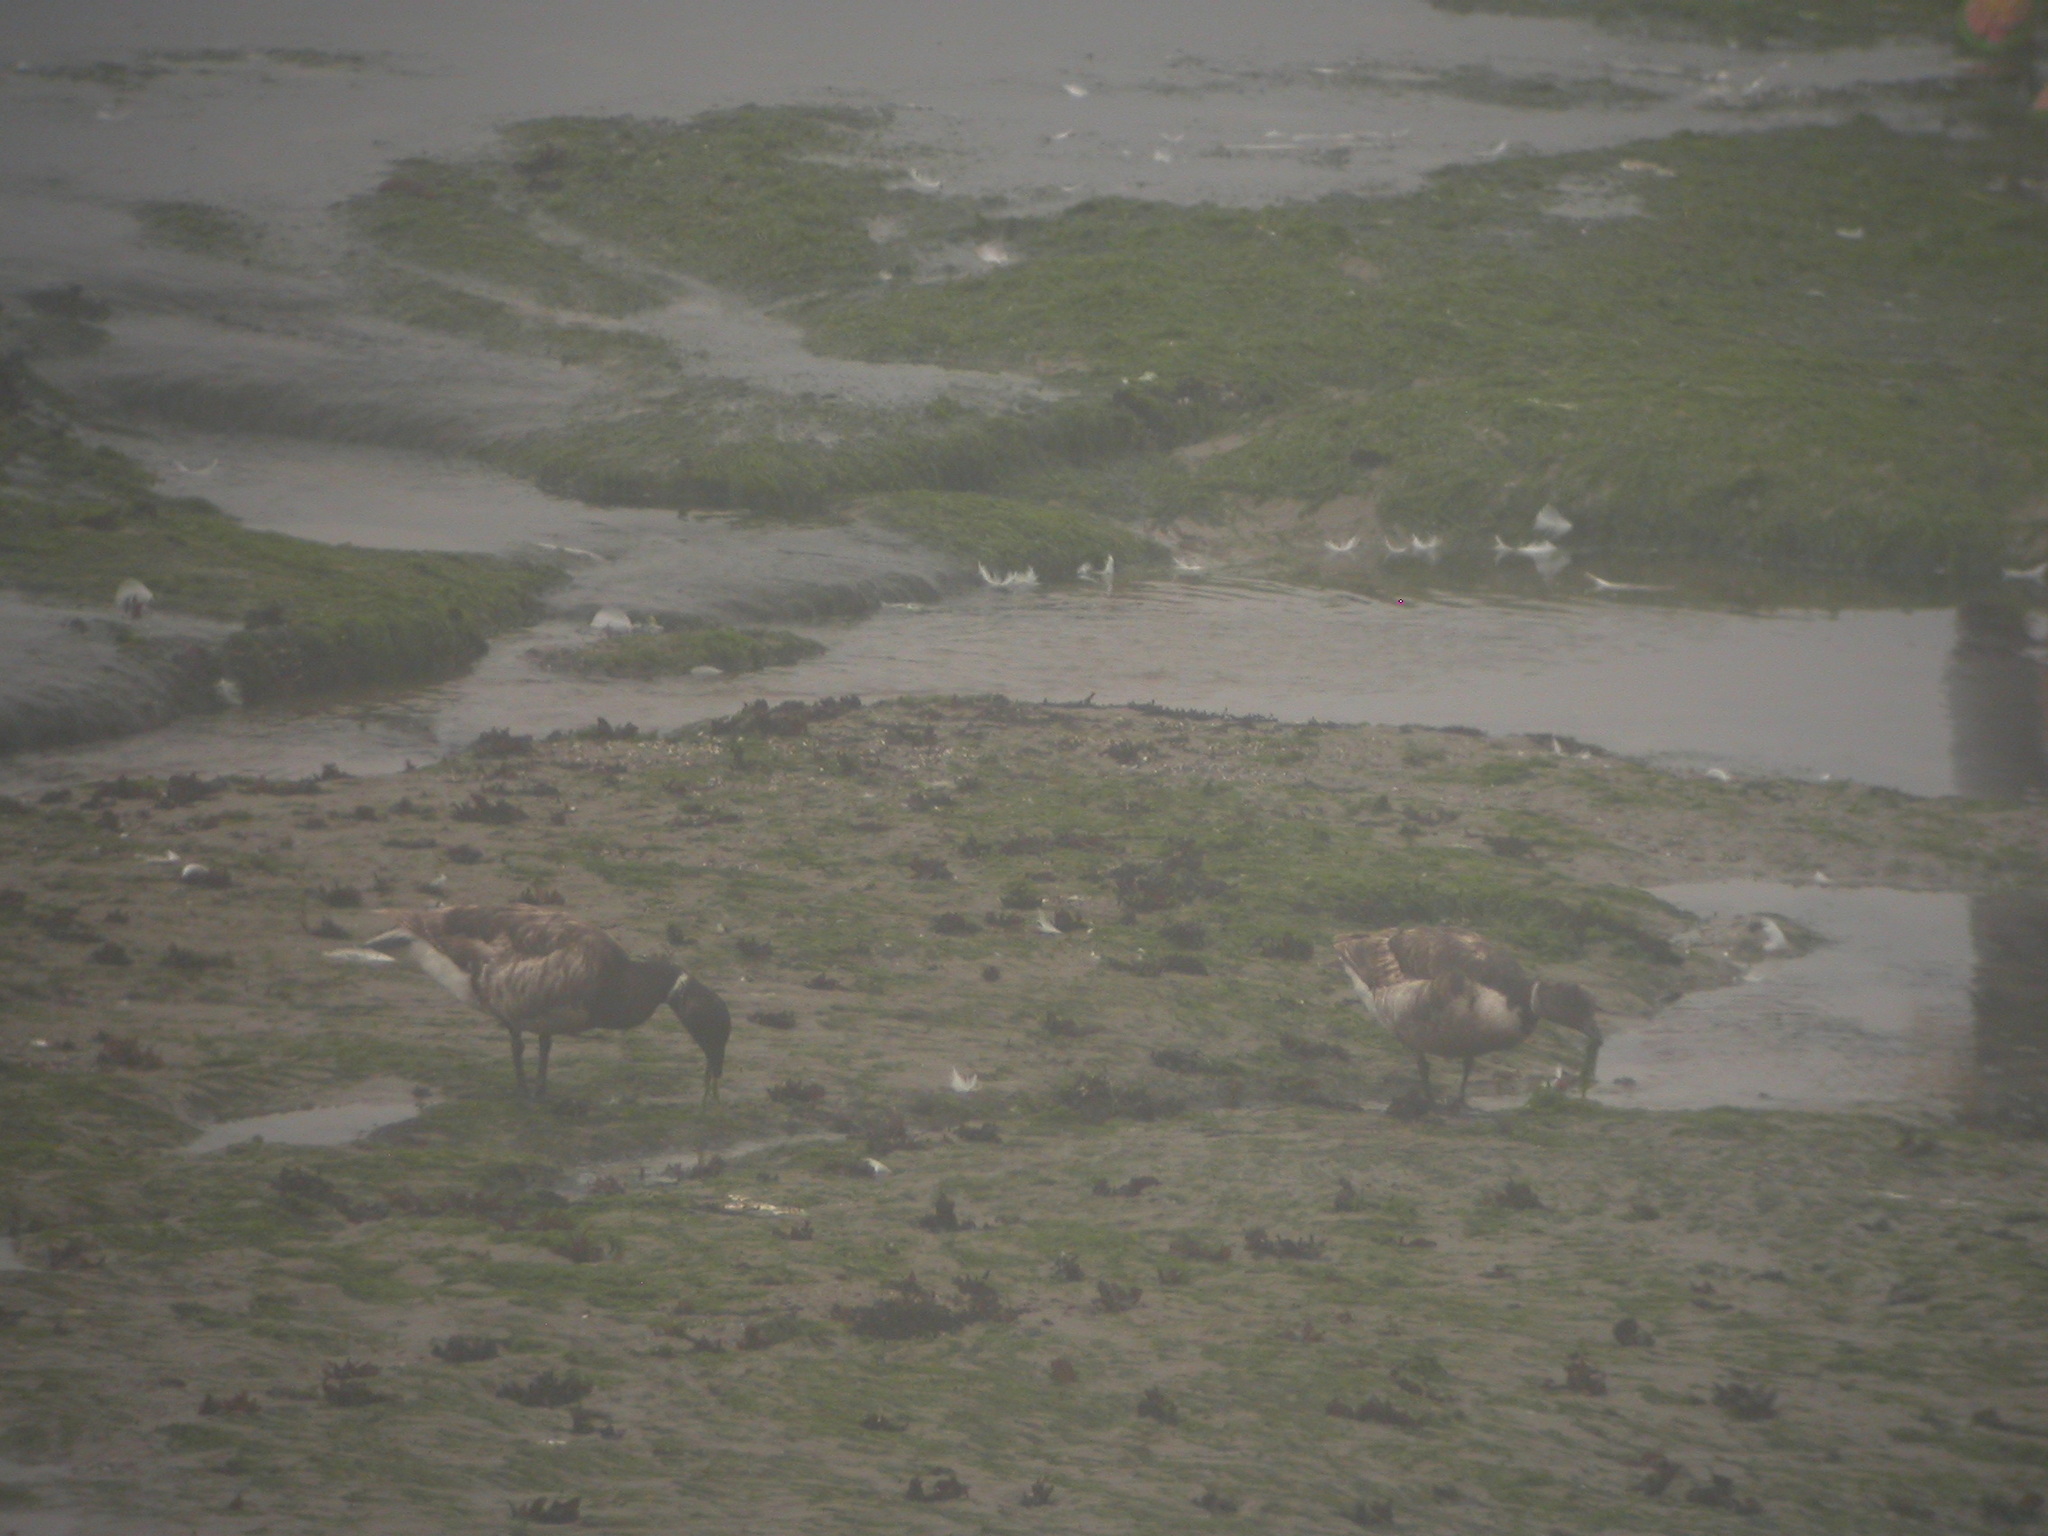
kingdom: Animalia
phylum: Chordata
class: Aves
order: Anseriformes
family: Anatidae
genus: Branta
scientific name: Branta bernicla
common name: Brant goose
